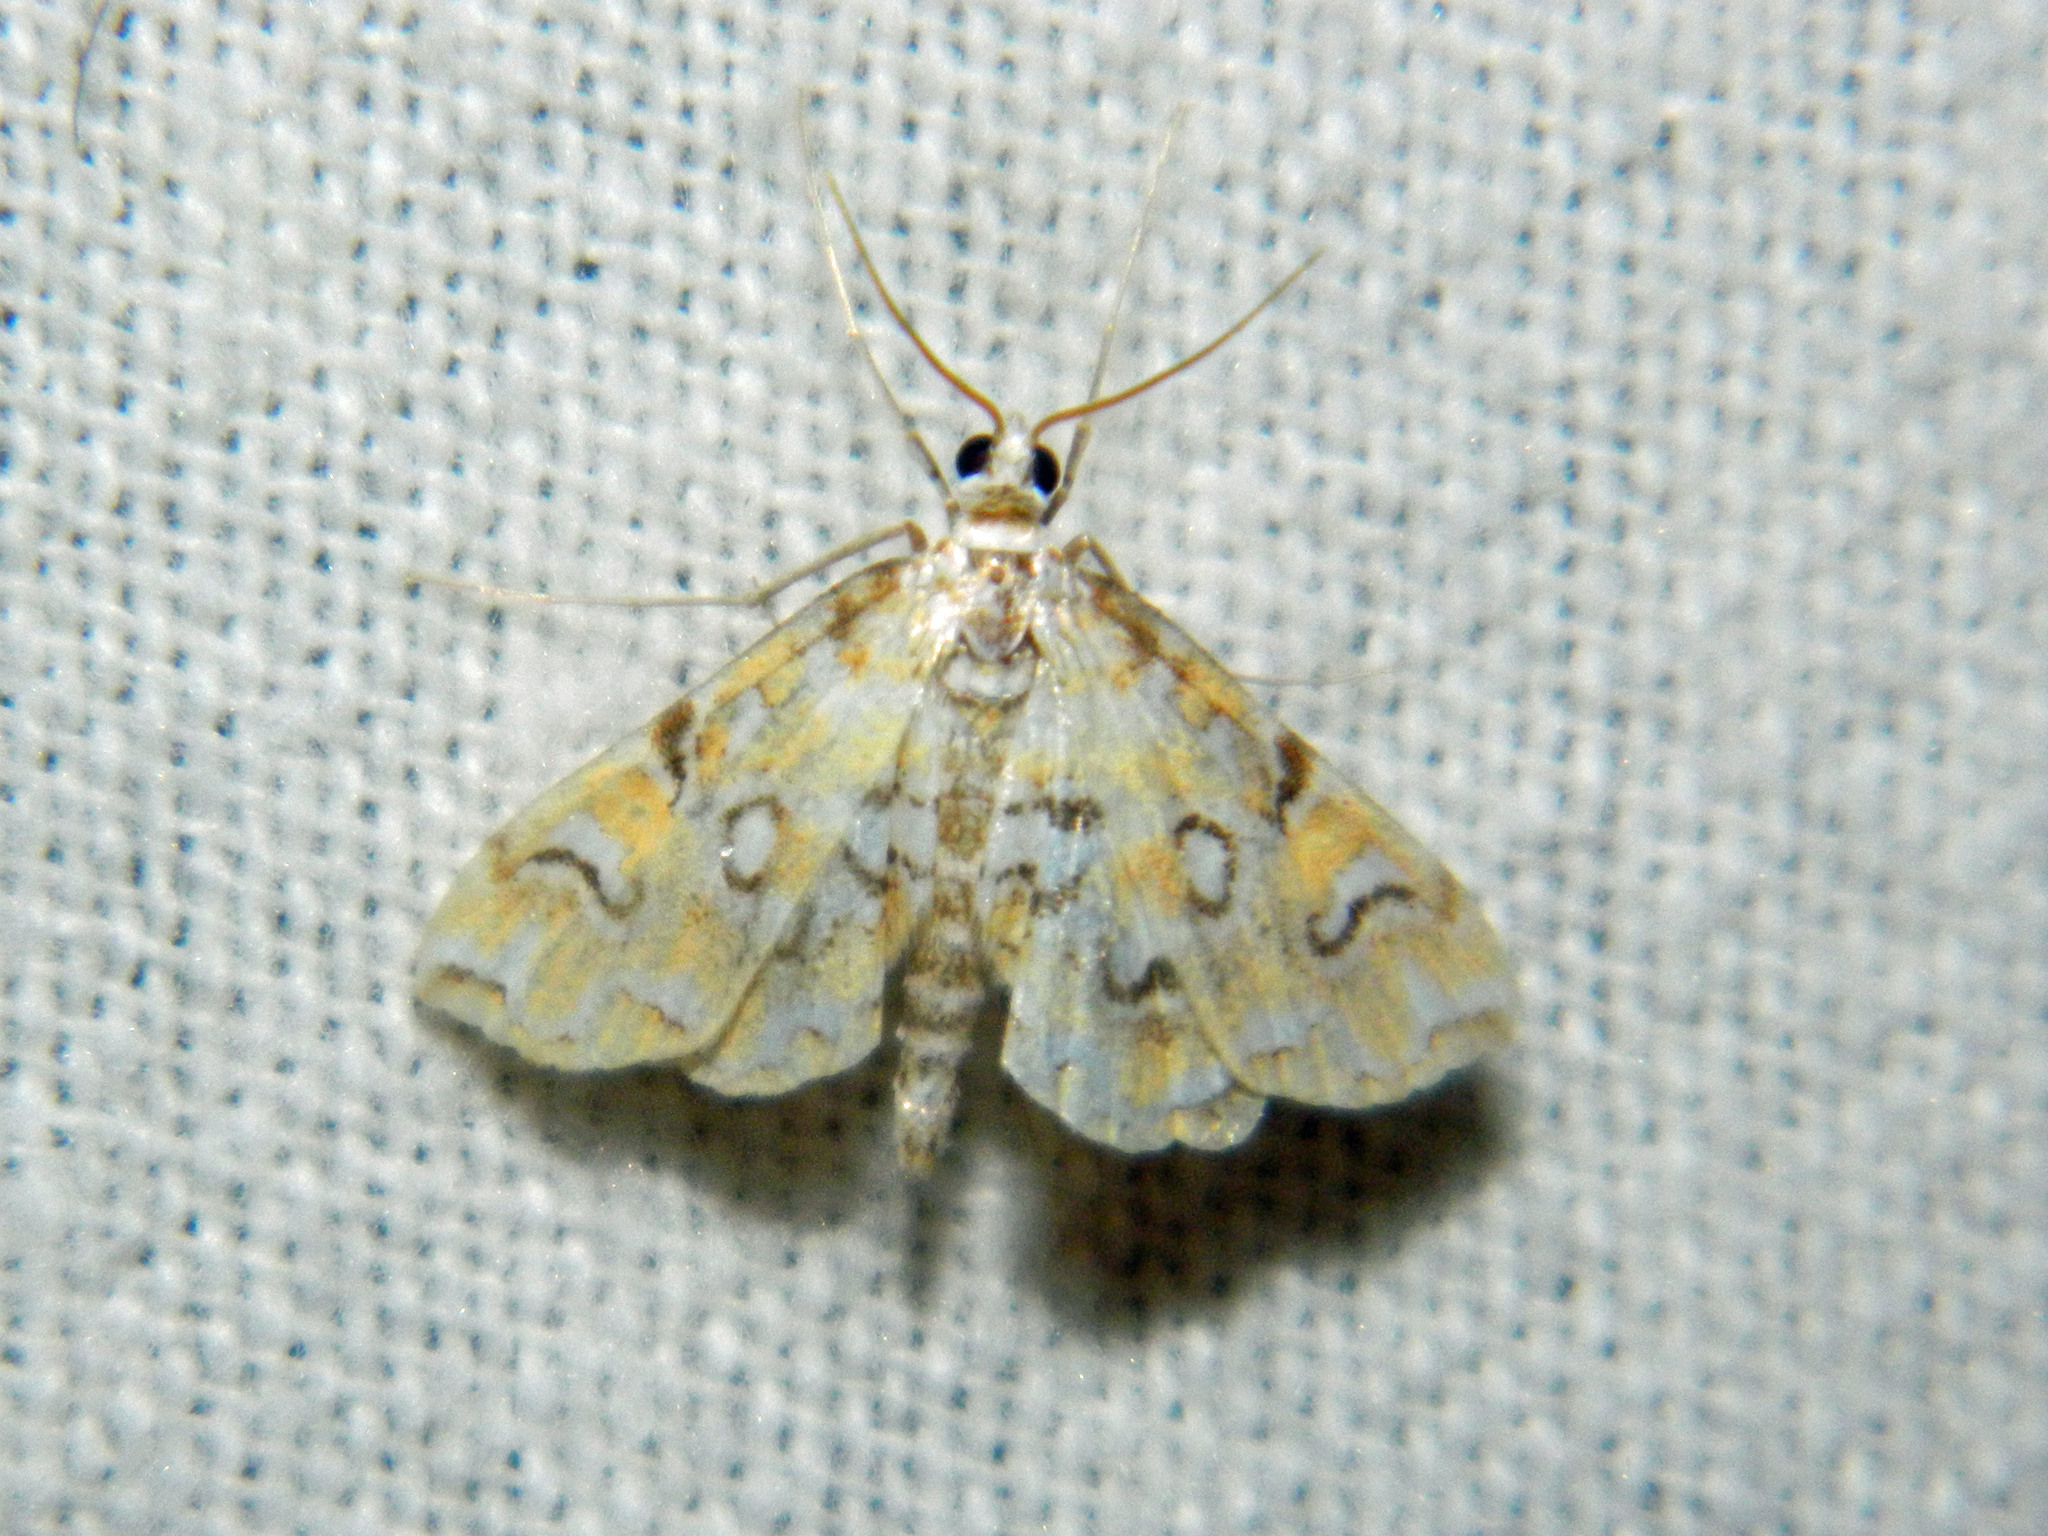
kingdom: Animalia
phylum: Arthropoda
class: Insecta
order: Lepidoptera
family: Crambidae
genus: Elophila
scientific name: Elophila icciusalis
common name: Pondside pyralid moth
